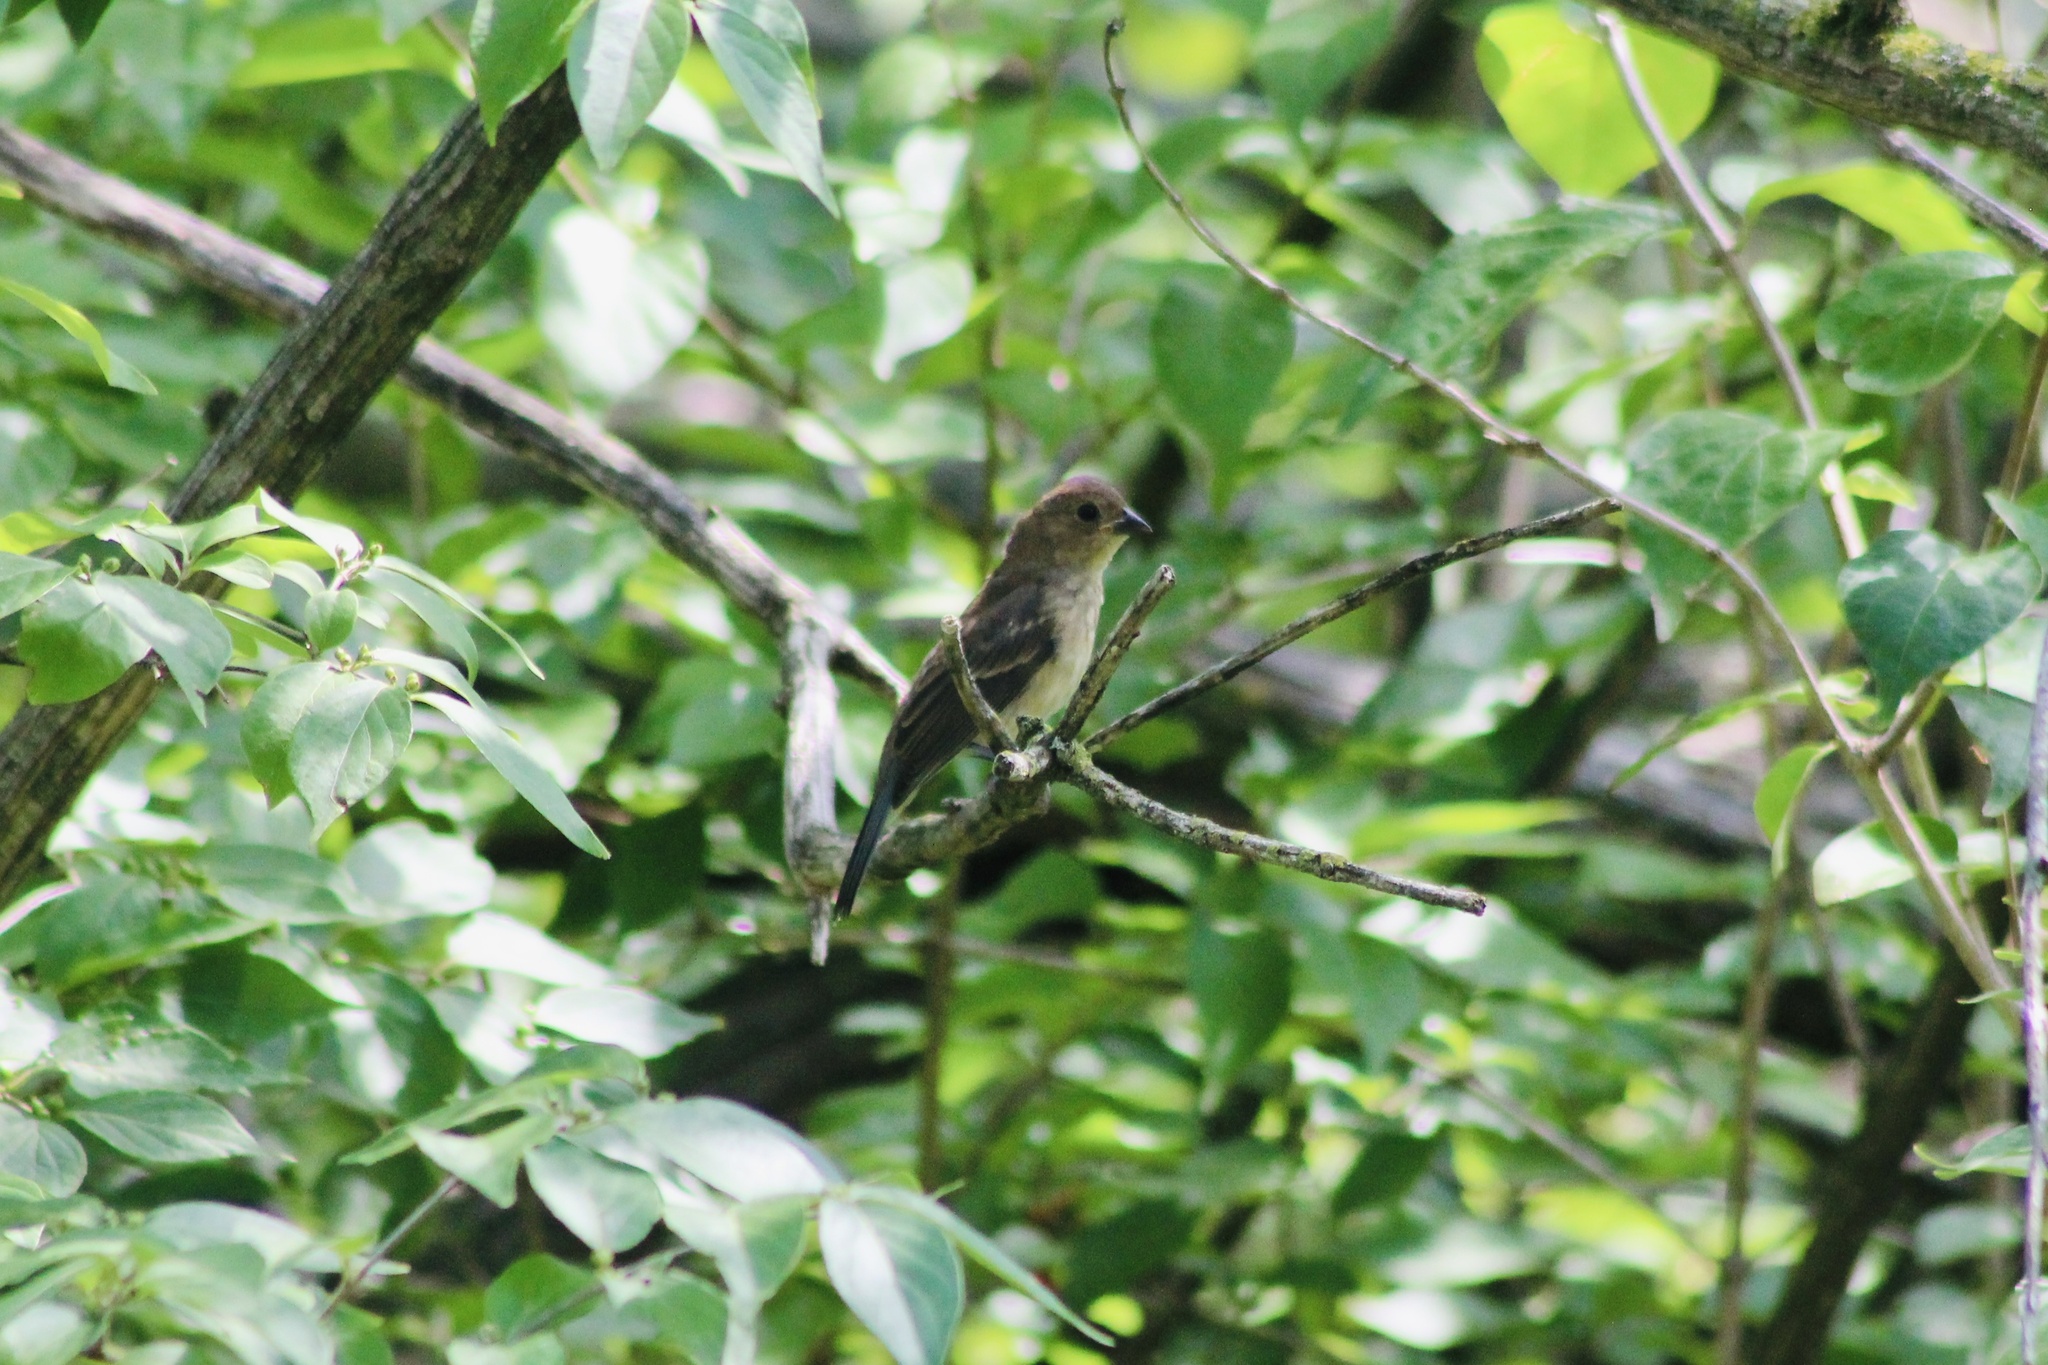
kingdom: Animalia
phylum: Chordata
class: Aves
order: Passeriformes
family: Cardinalidae
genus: Passerina
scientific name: Passerina cyanea
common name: Indigo bunting
